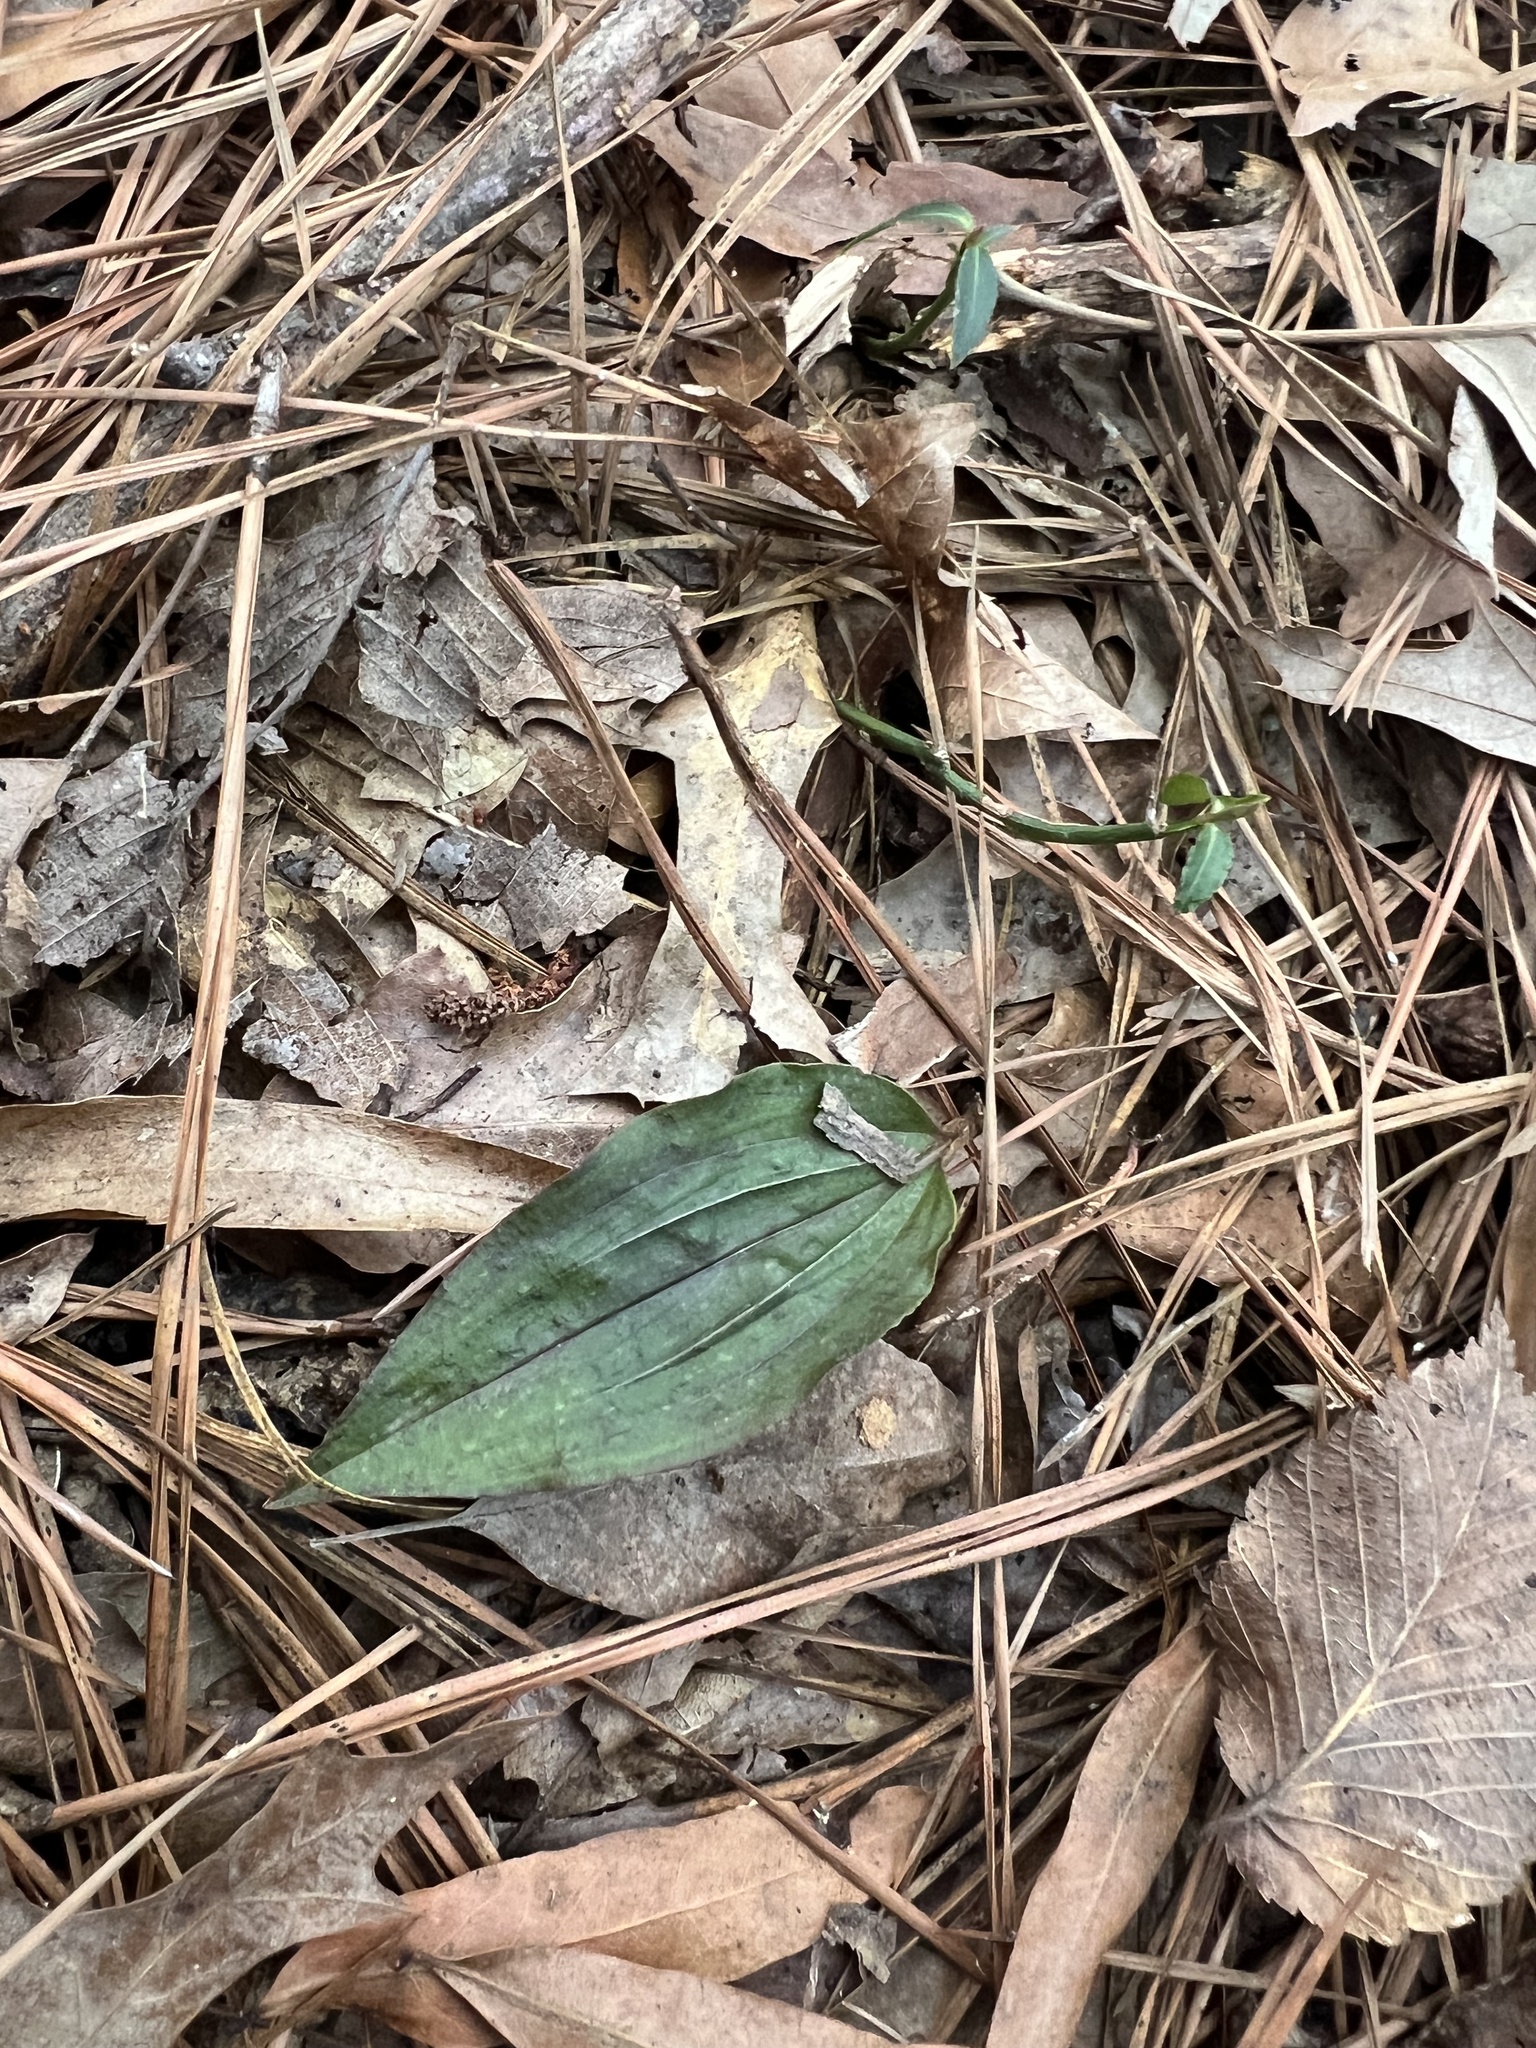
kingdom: Plantae
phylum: Tracheophyta
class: Liliopsida
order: Asparagales
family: Orchidaceae
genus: Tipularia
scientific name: Tipularia discolor
